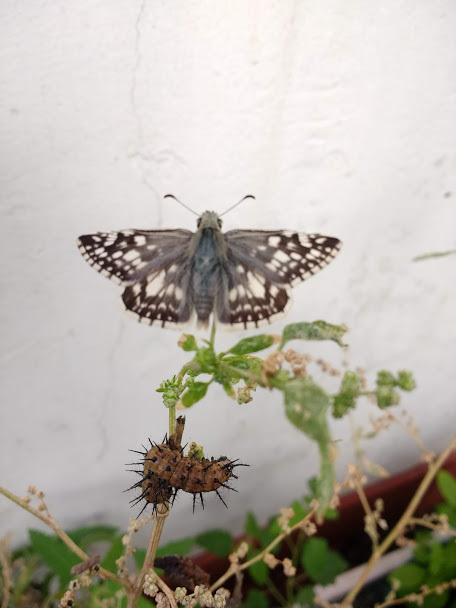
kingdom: Animalia
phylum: Arthropoda
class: Insecta
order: Lepidoptera
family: Hesperiidae
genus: Heliopetes
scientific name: Heliopetes americanus
